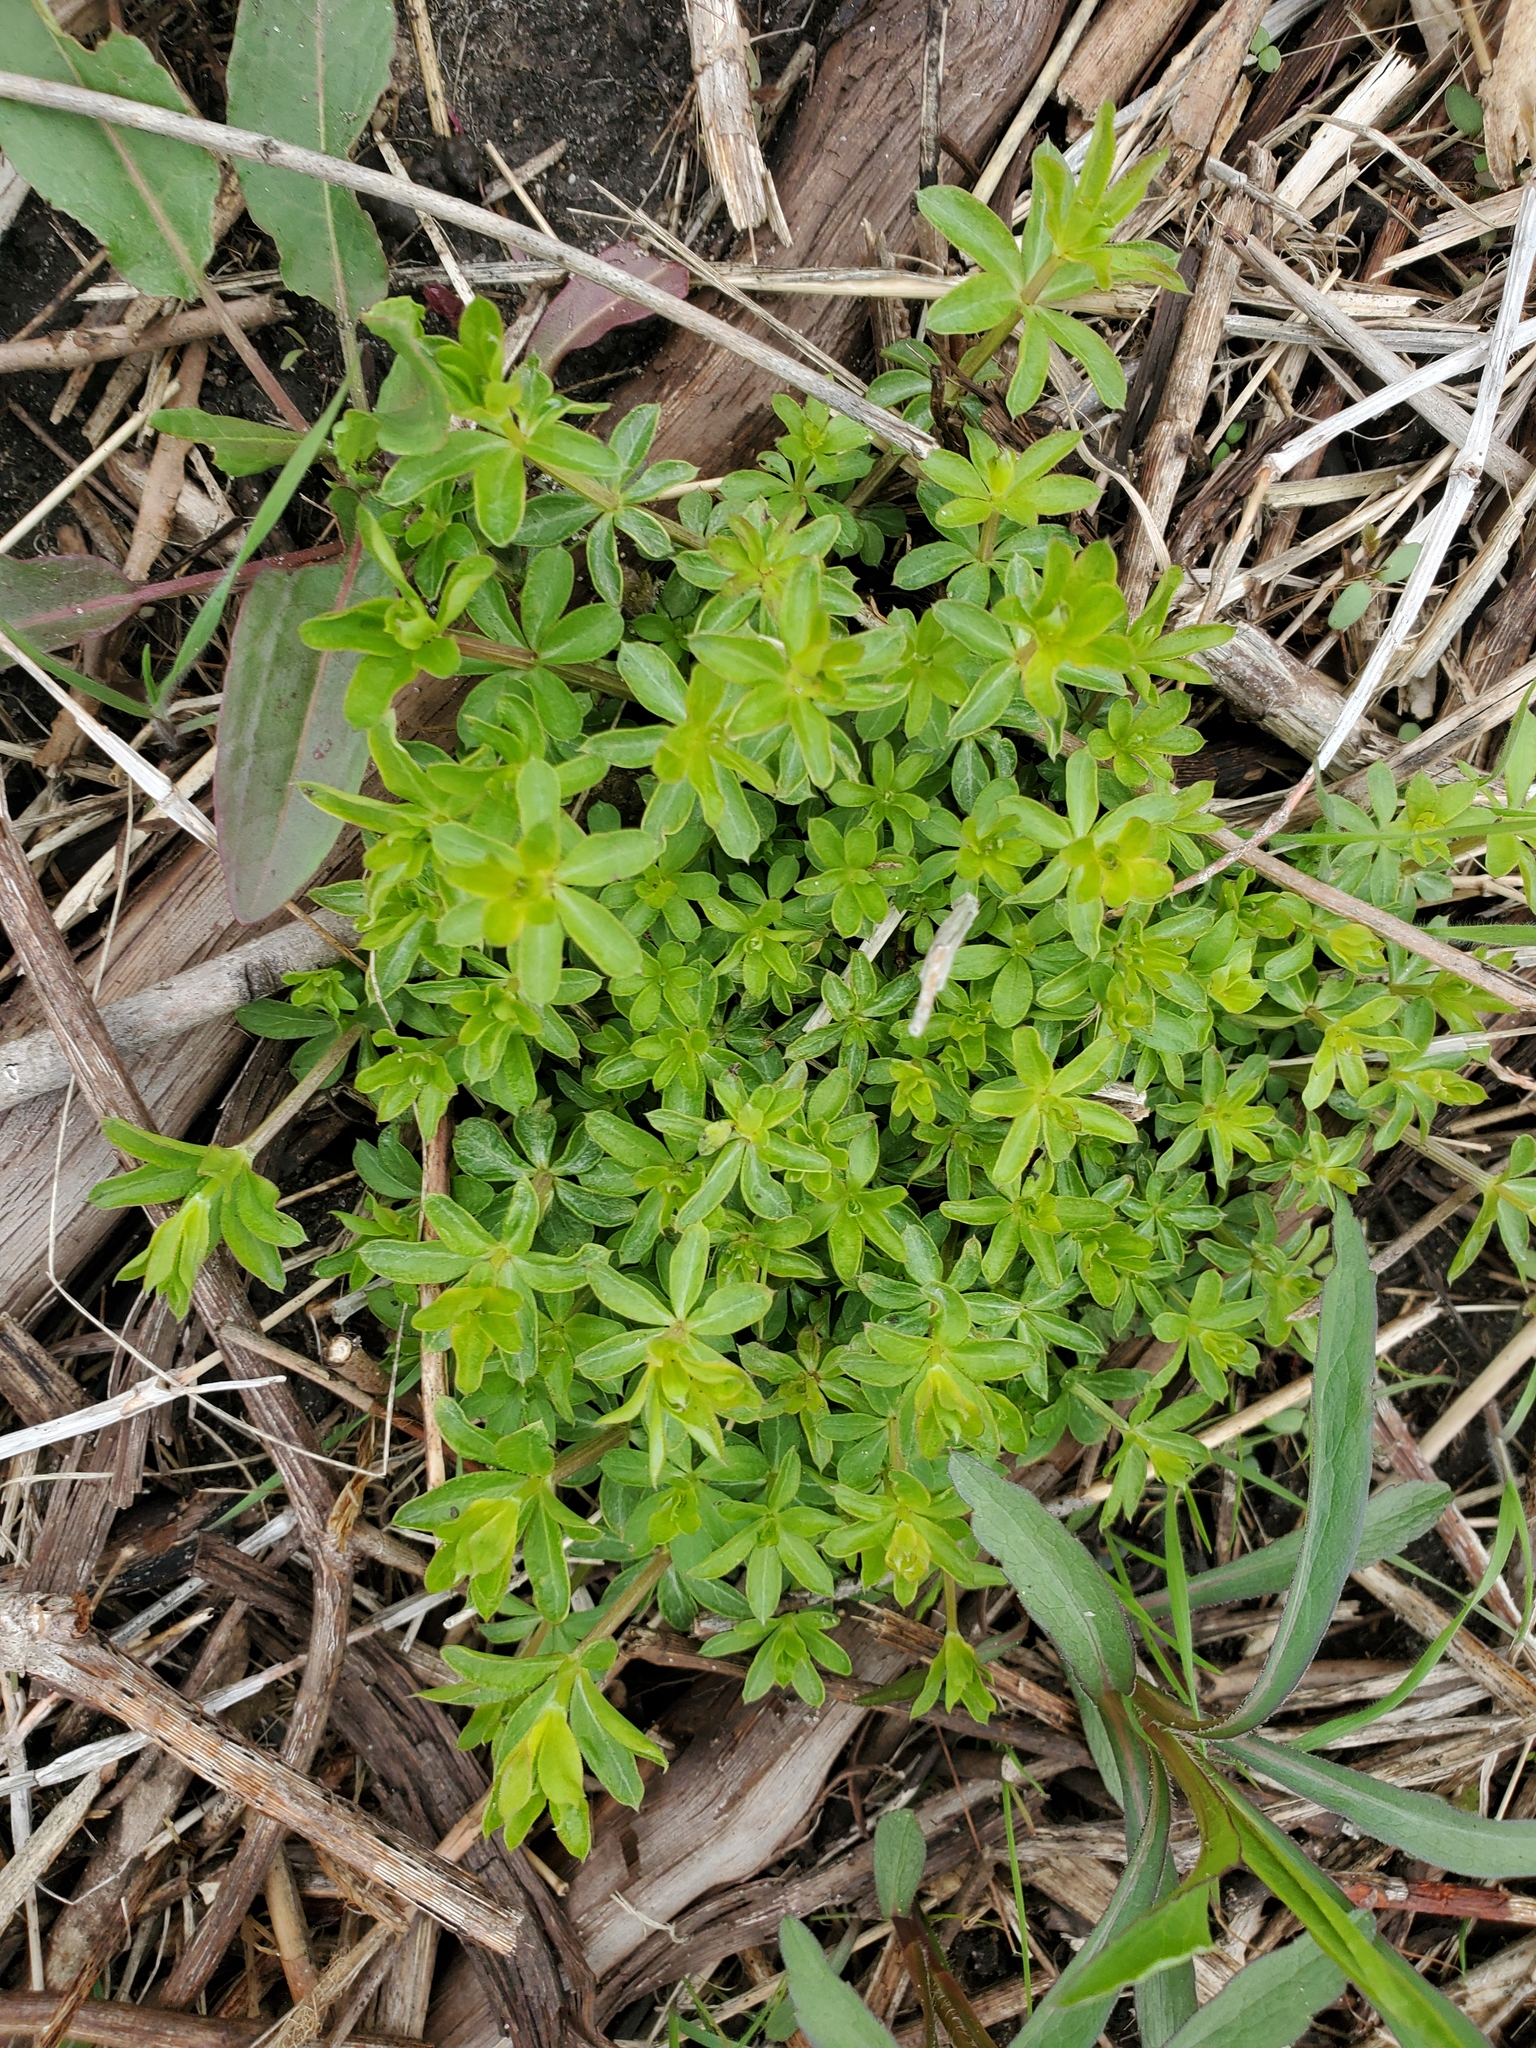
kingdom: Plantae
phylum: Tracheophyta
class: Magnoliopsida
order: Gentianales
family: Rubiaceae
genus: Galium
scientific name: Galium triflorum
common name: Fragrant bedstraw
